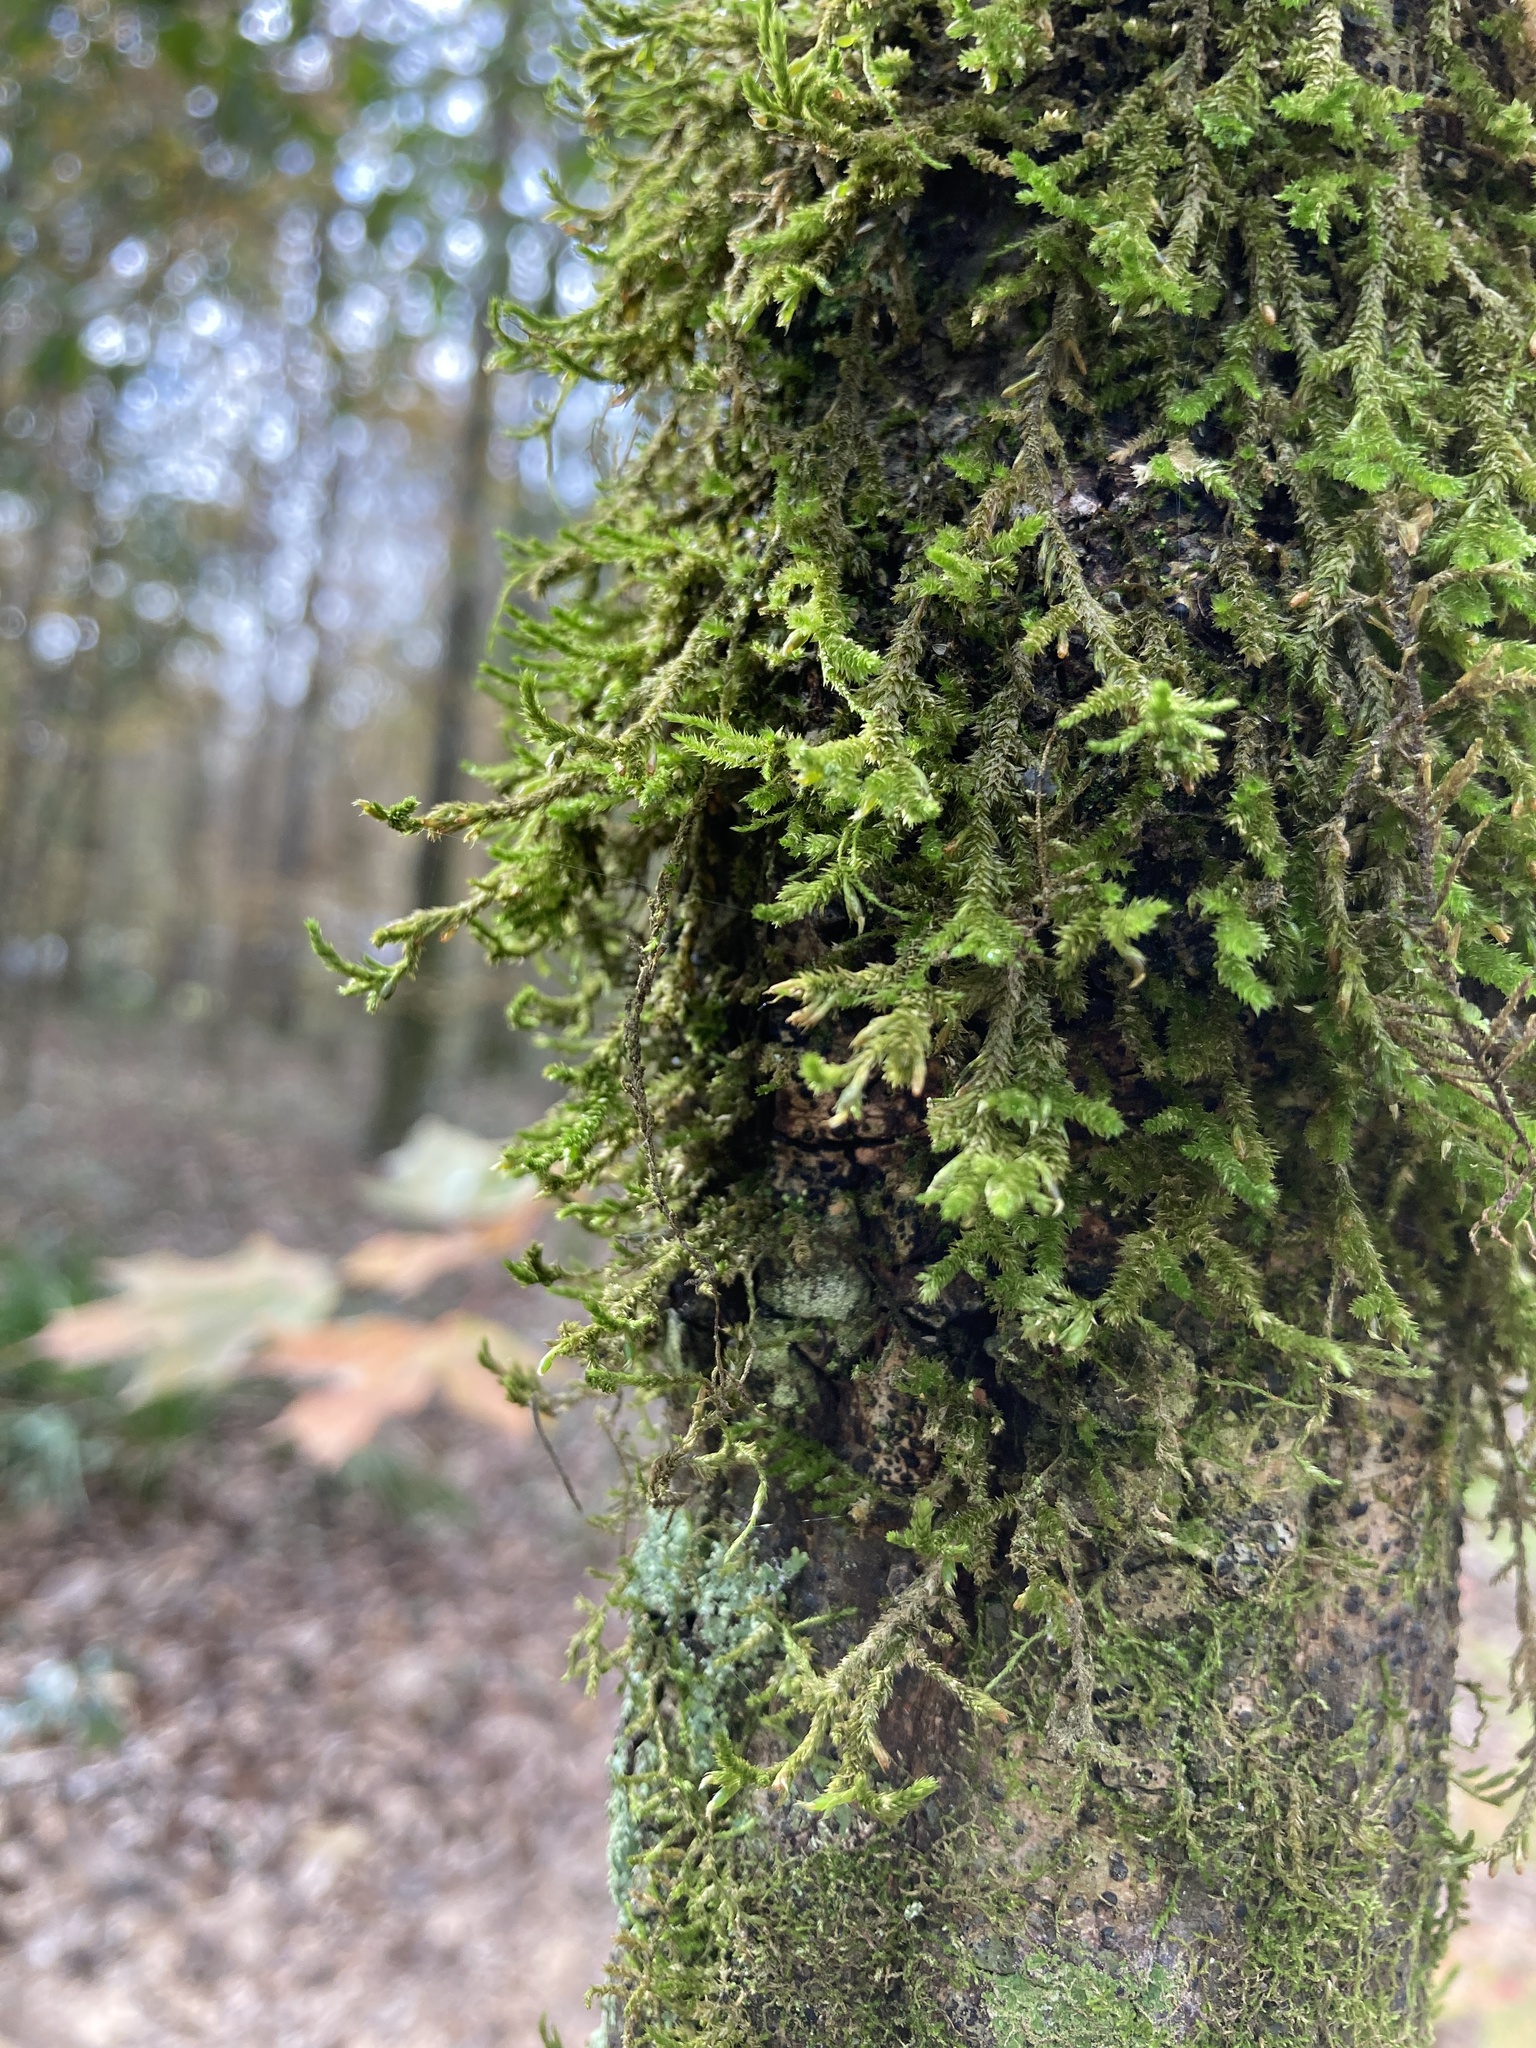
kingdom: Plantae
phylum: Bryophyta
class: Bryopsida
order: Hypnales
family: Neckeraceae
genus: Forsstroemia
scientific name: Forsstroemia trichomitria
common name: Fan moss
